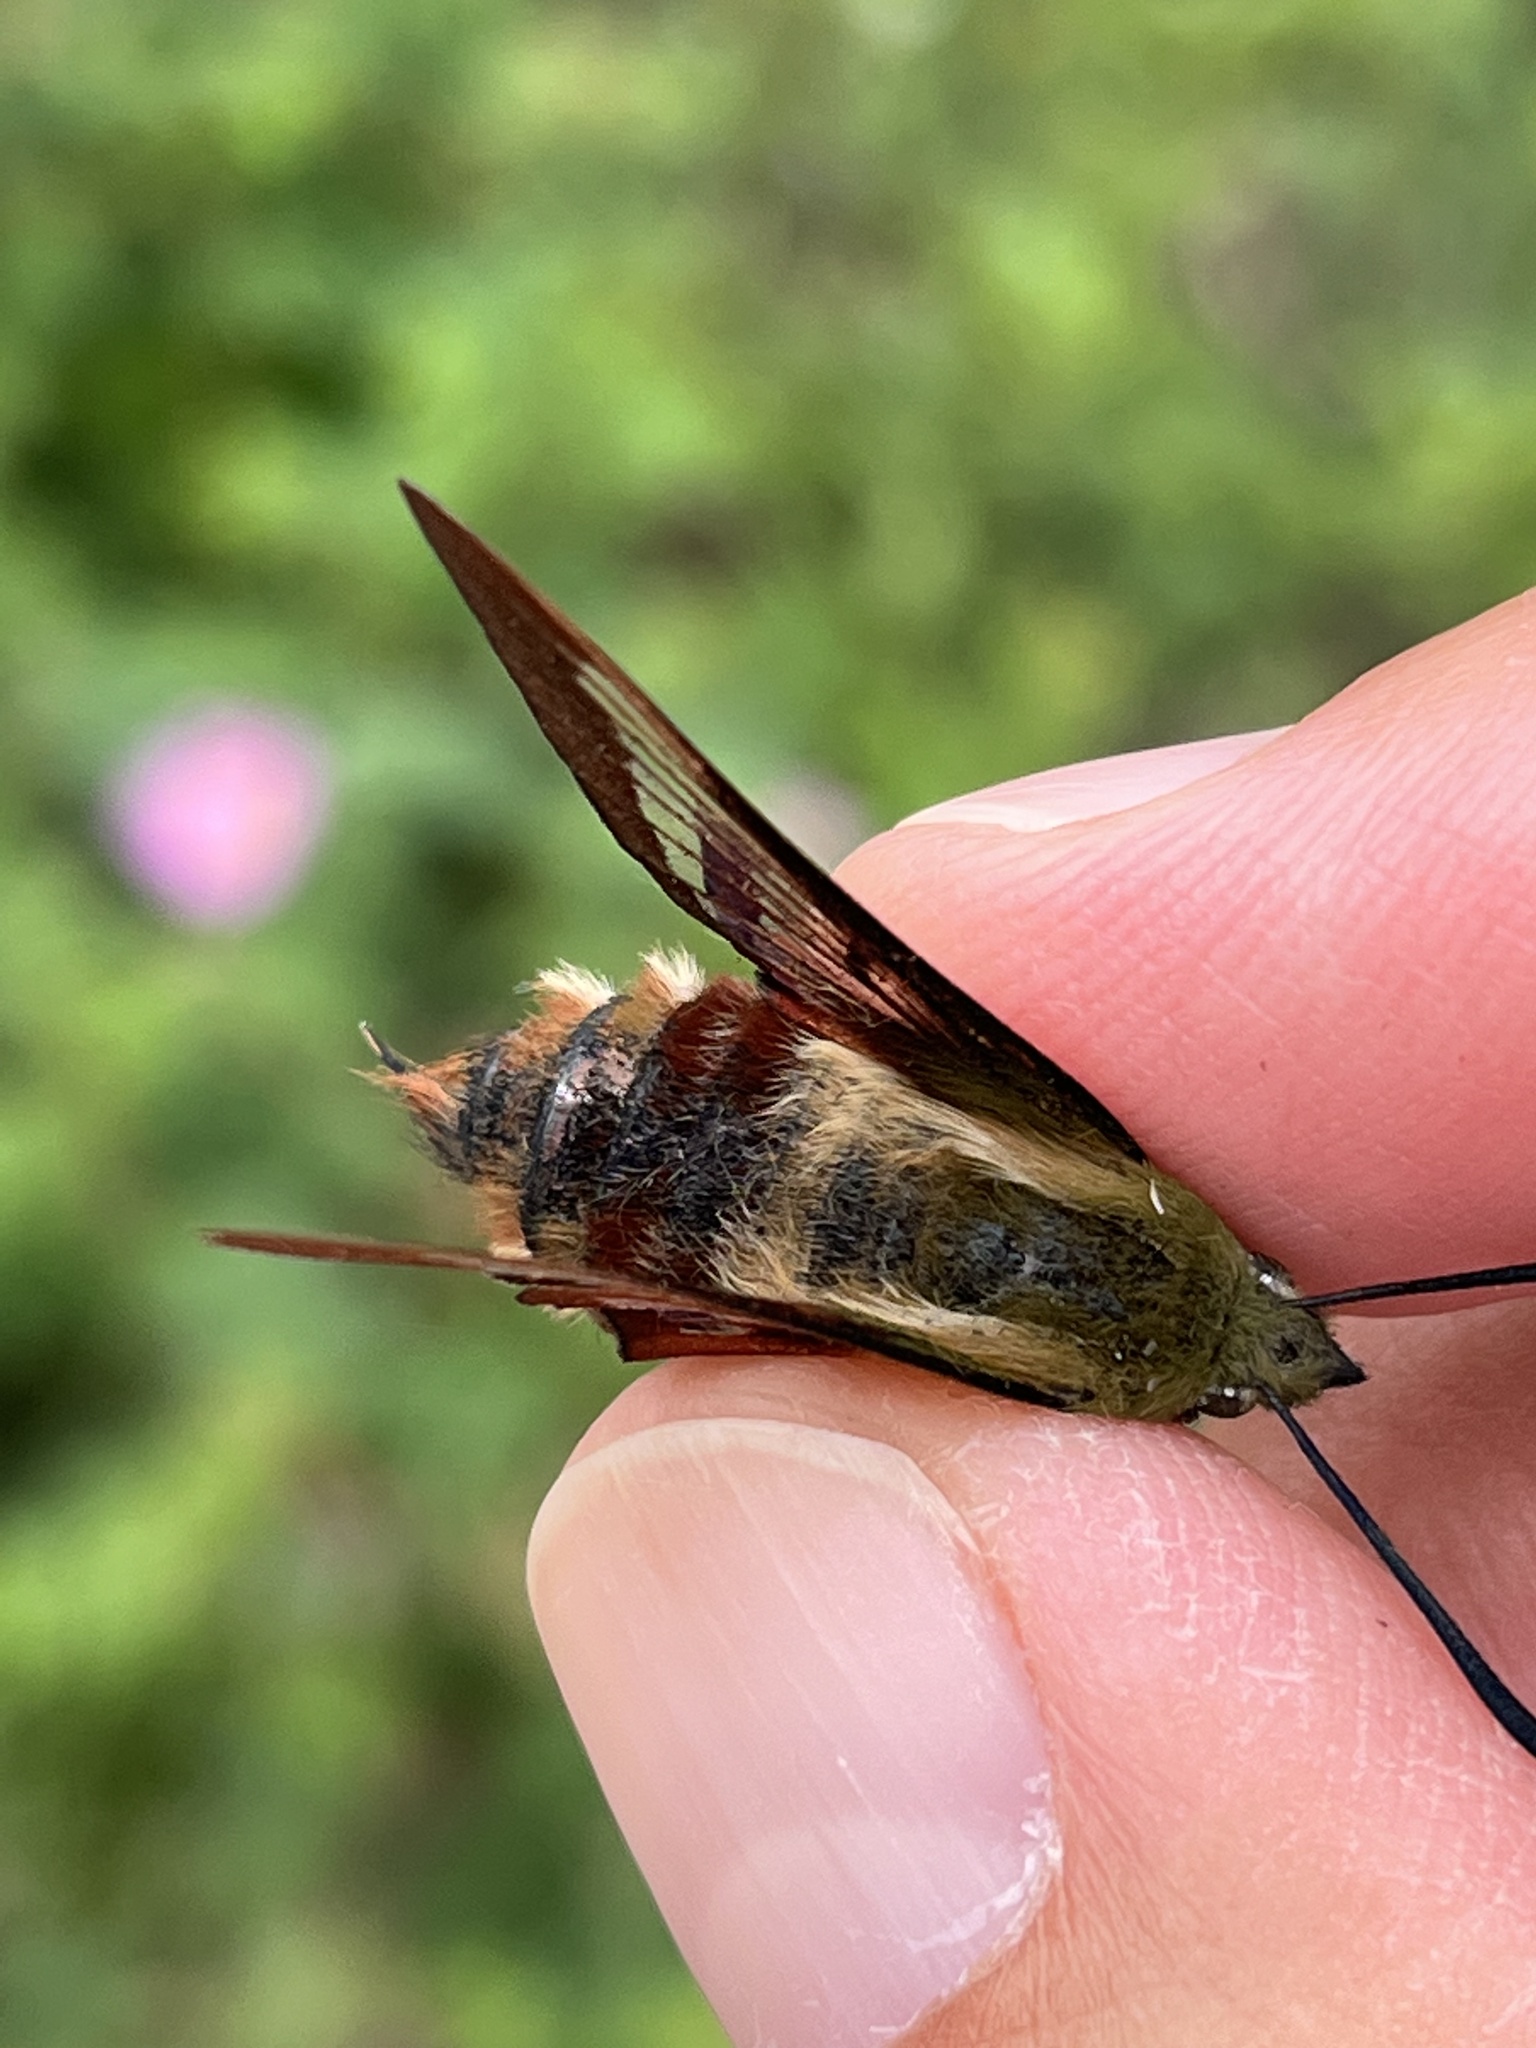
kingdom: Animalia
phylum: Arthropoda
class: Insecta
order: Lepidoptera
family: Sphingidae
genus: Hemaris
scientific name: Hemaris thysbe
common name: Common clear-wing
